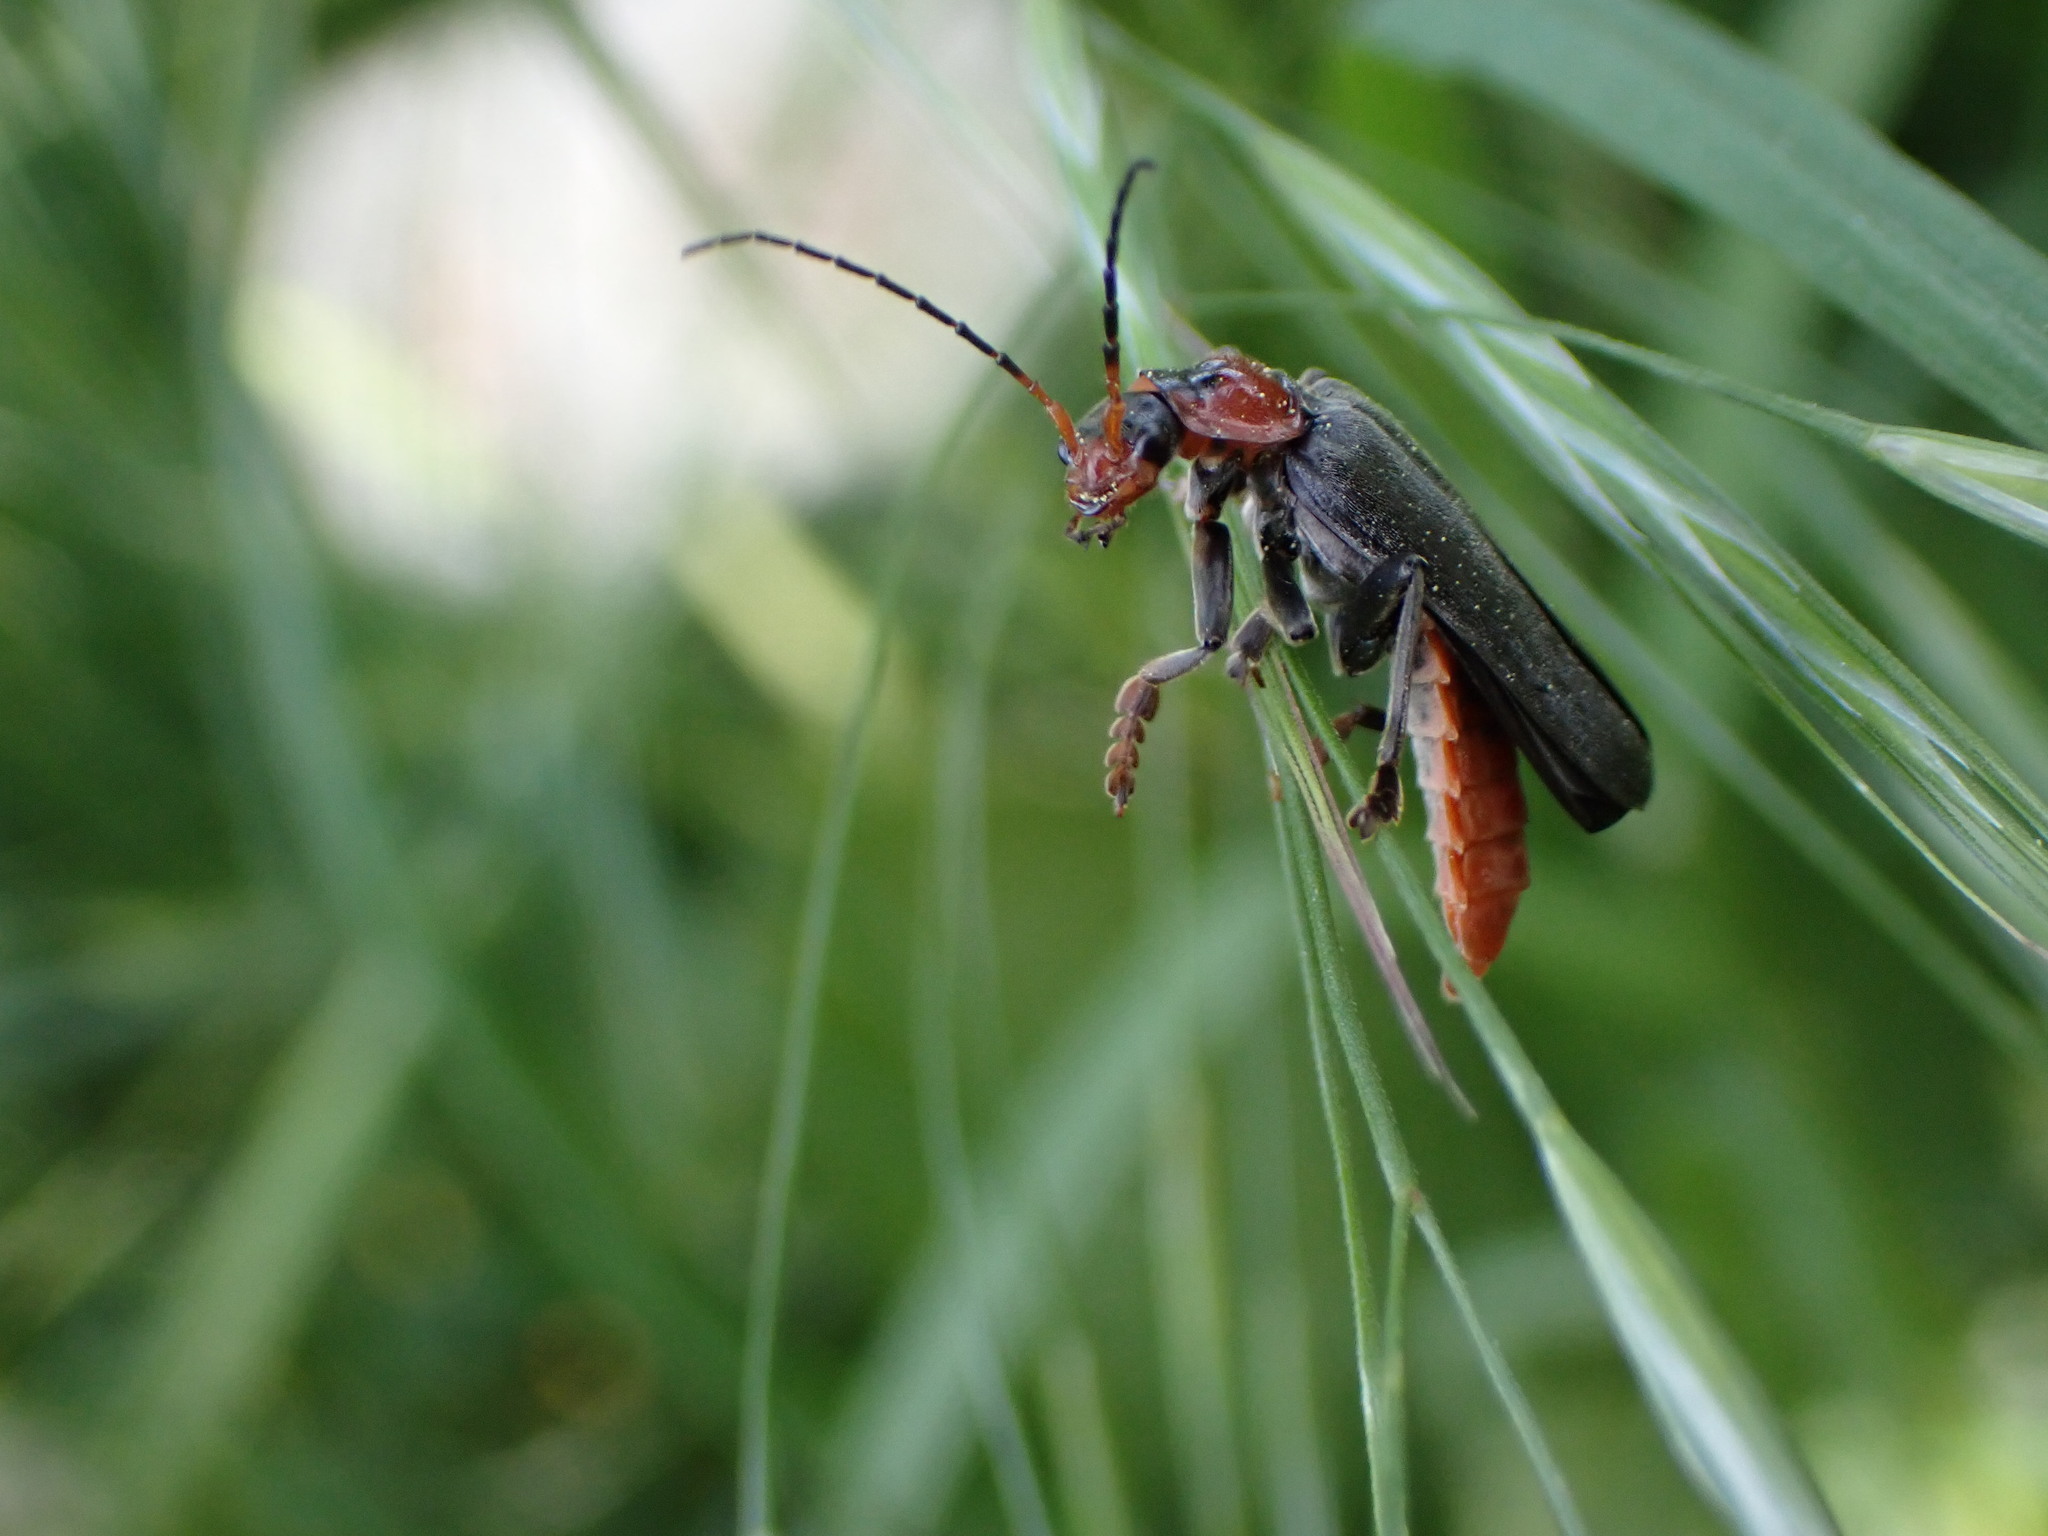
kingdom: Animalia
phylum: Arthropoda
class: Insecta
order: Coleoptera
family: Cantharidae
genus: Cantharis
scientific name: Cantharis fusca
